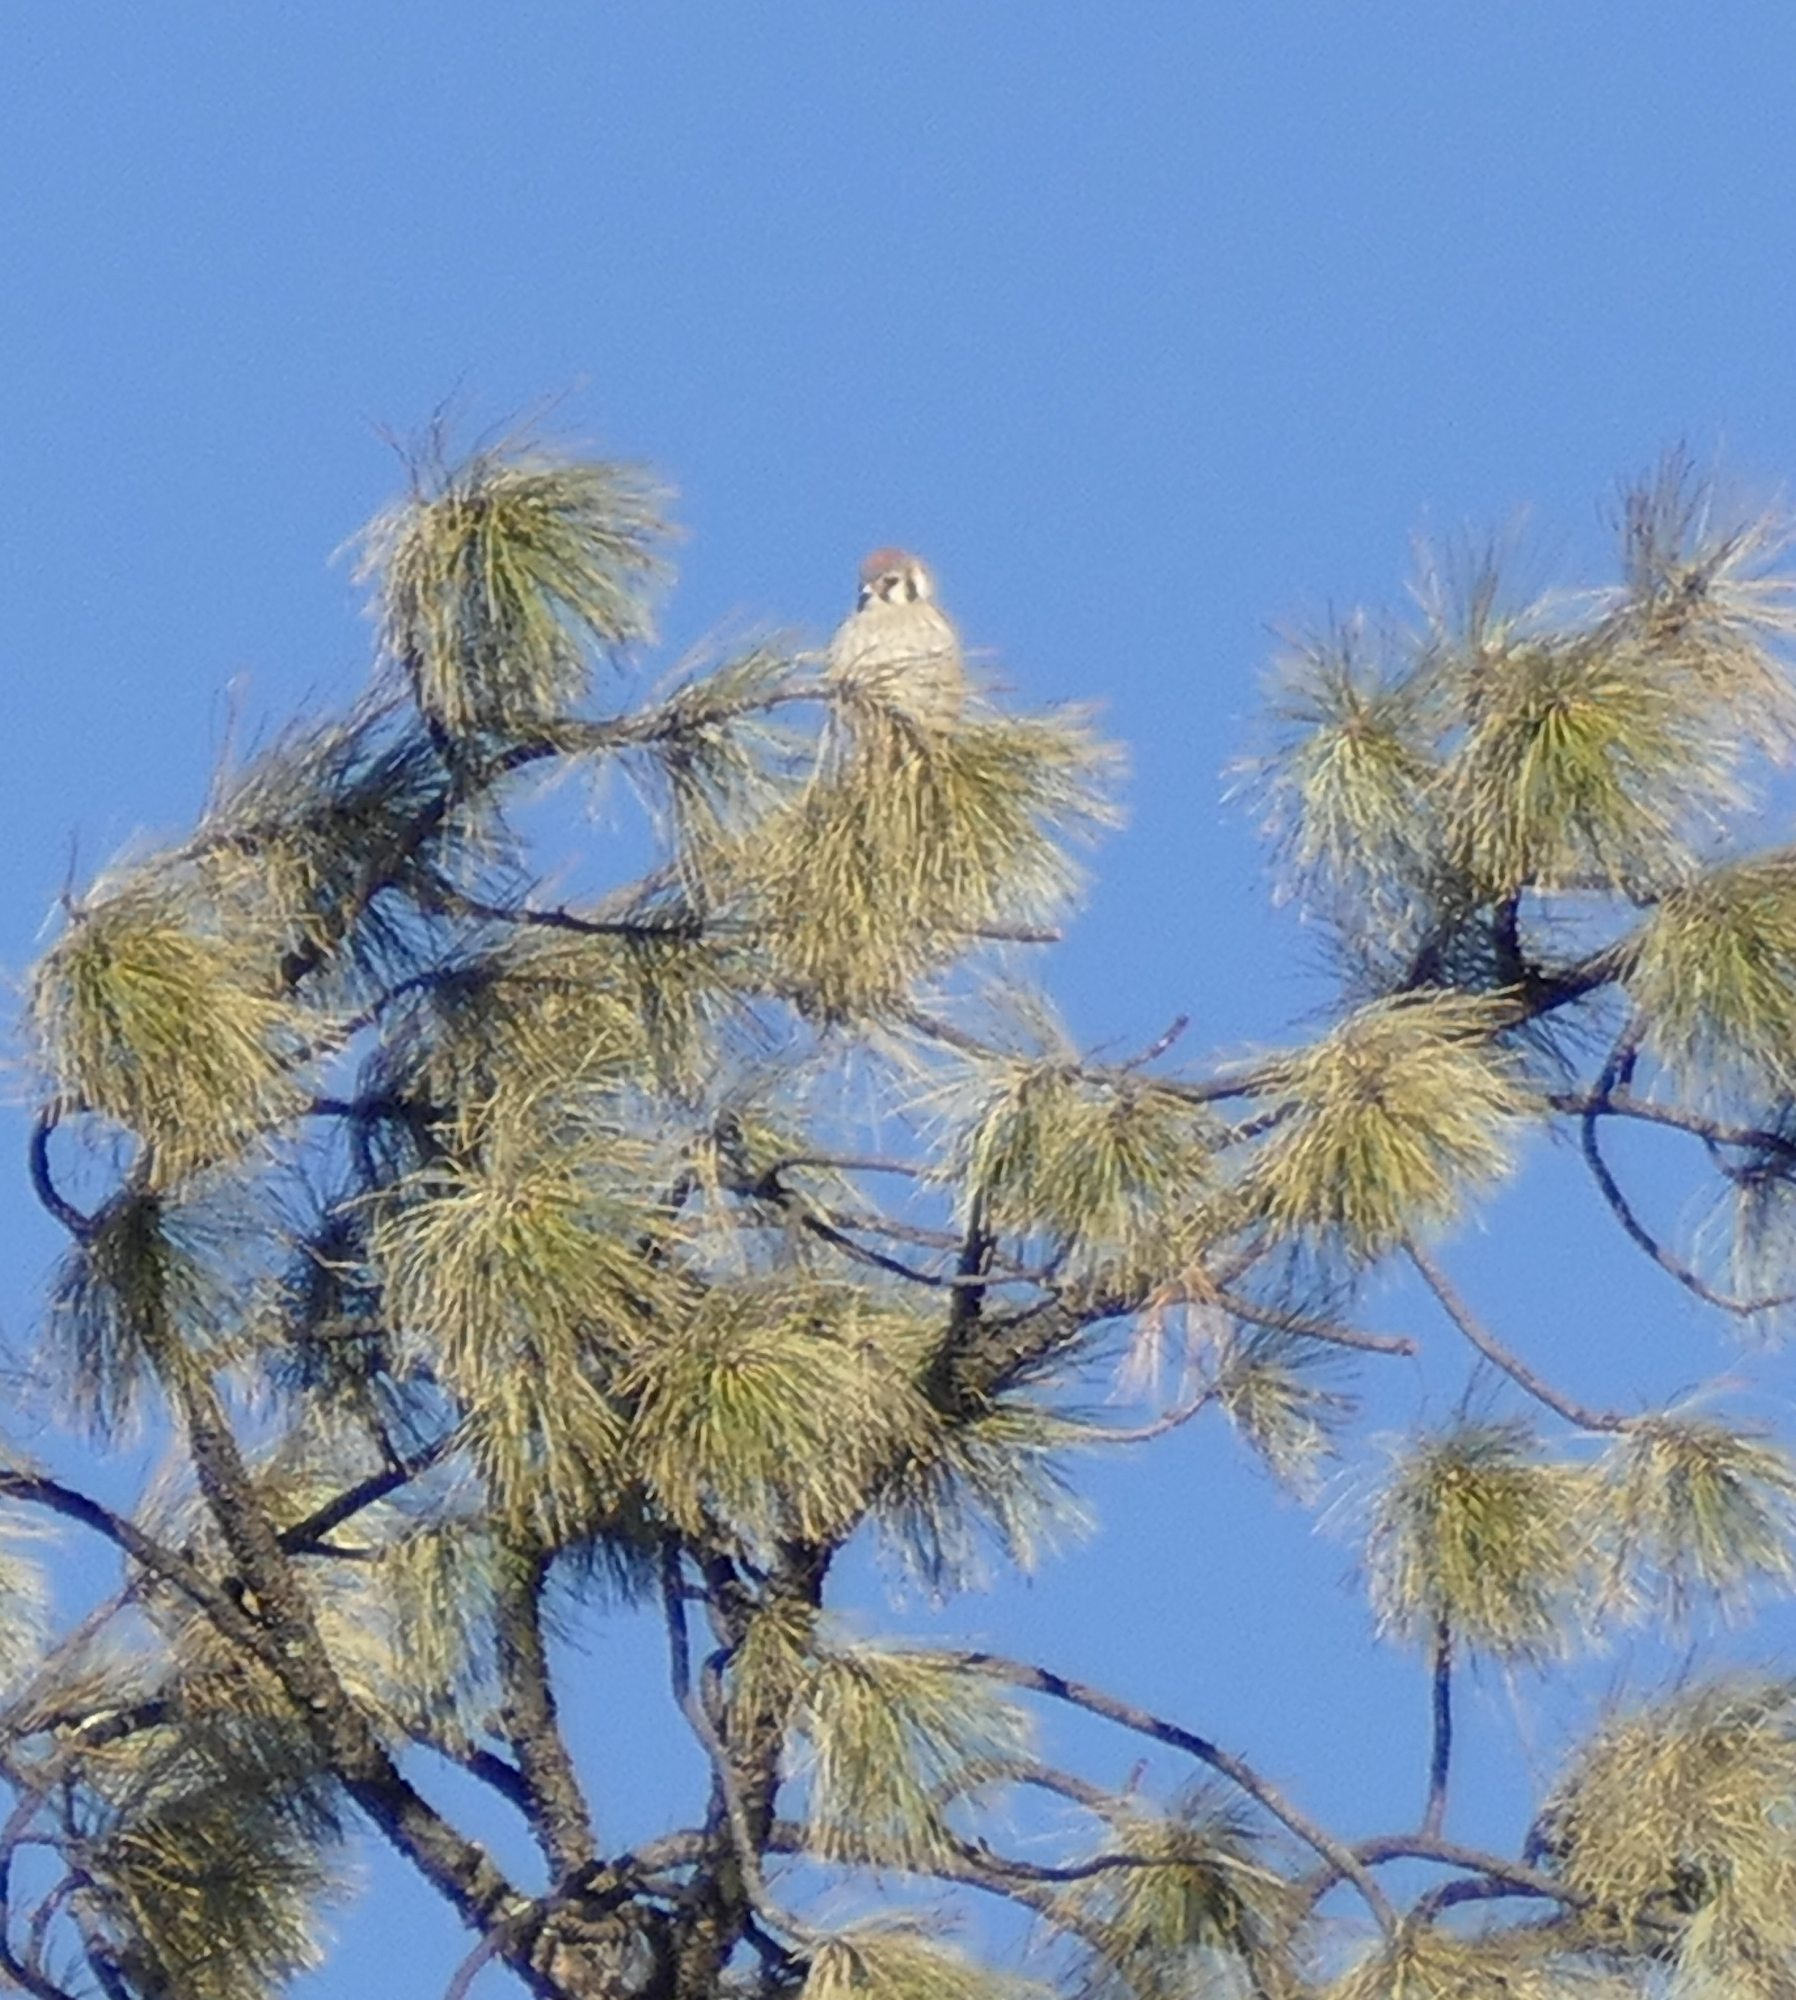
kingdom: Animalia
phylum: Chordata
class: Aves
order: Falconiformes
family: Falconidae
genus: Falco
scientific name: Falco sparverius
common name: American kestrel
